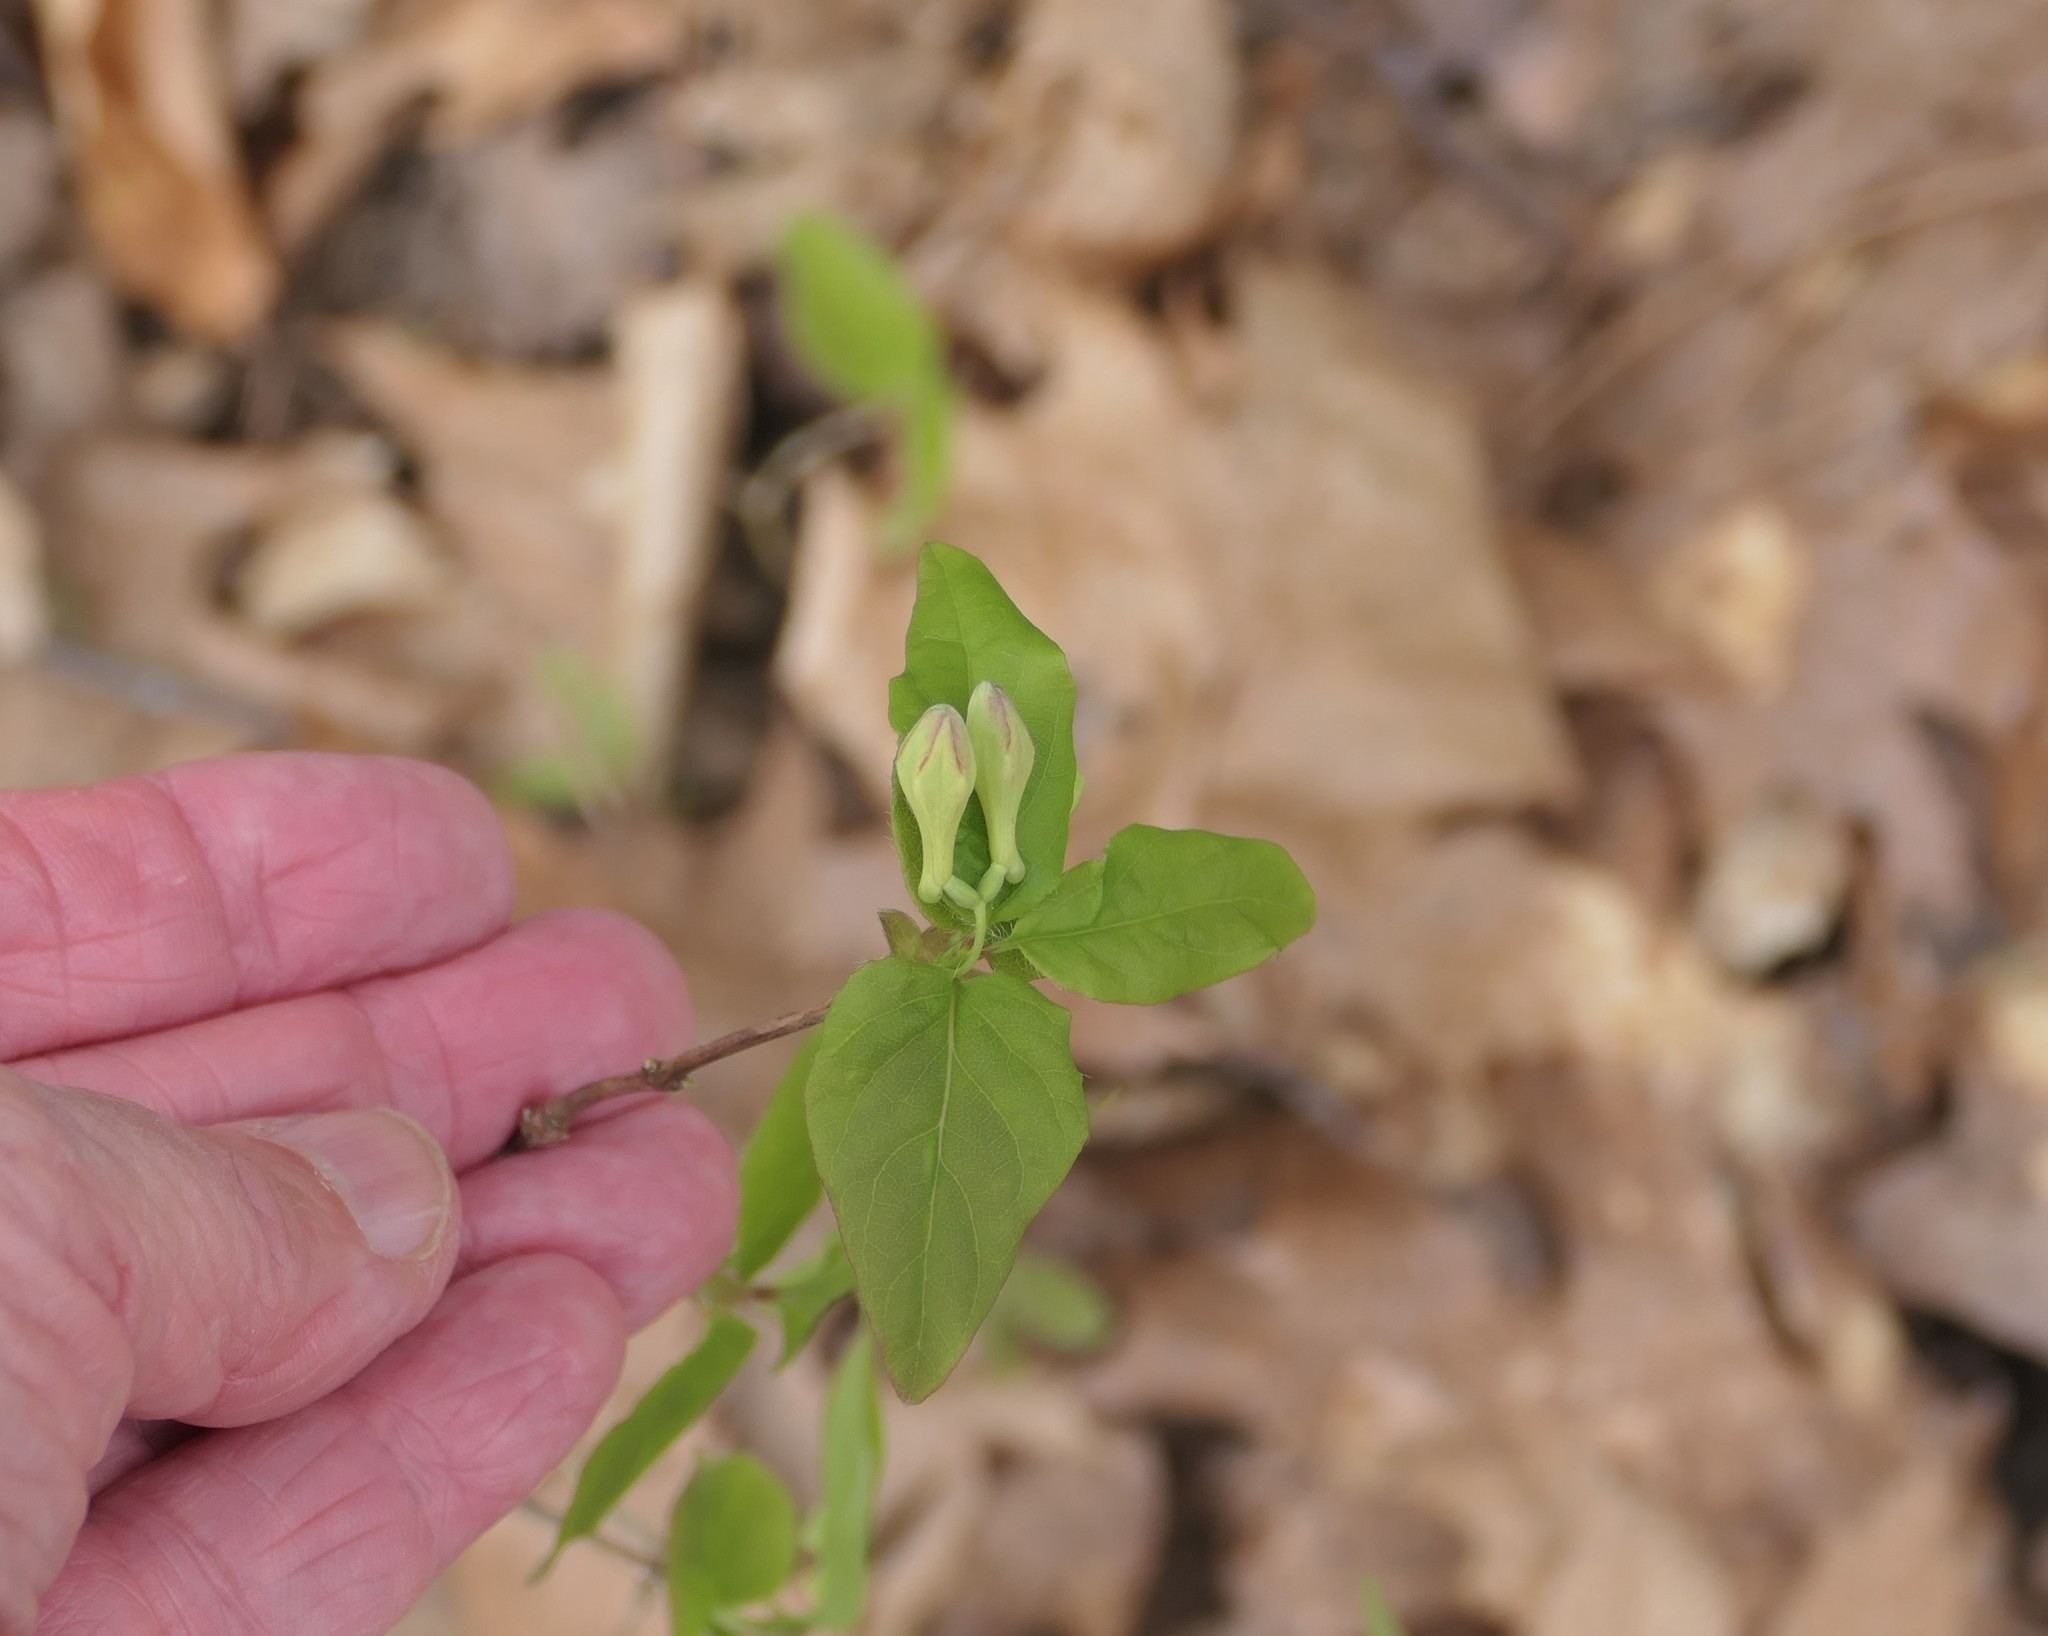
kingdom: Plantae
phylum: Tracheophyta
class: Magnoliopsida
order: Dipsacales
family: Caprifoliaceae
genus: Lonicera
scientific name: Lonicera canadensis
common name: American fly-honeysuckle
